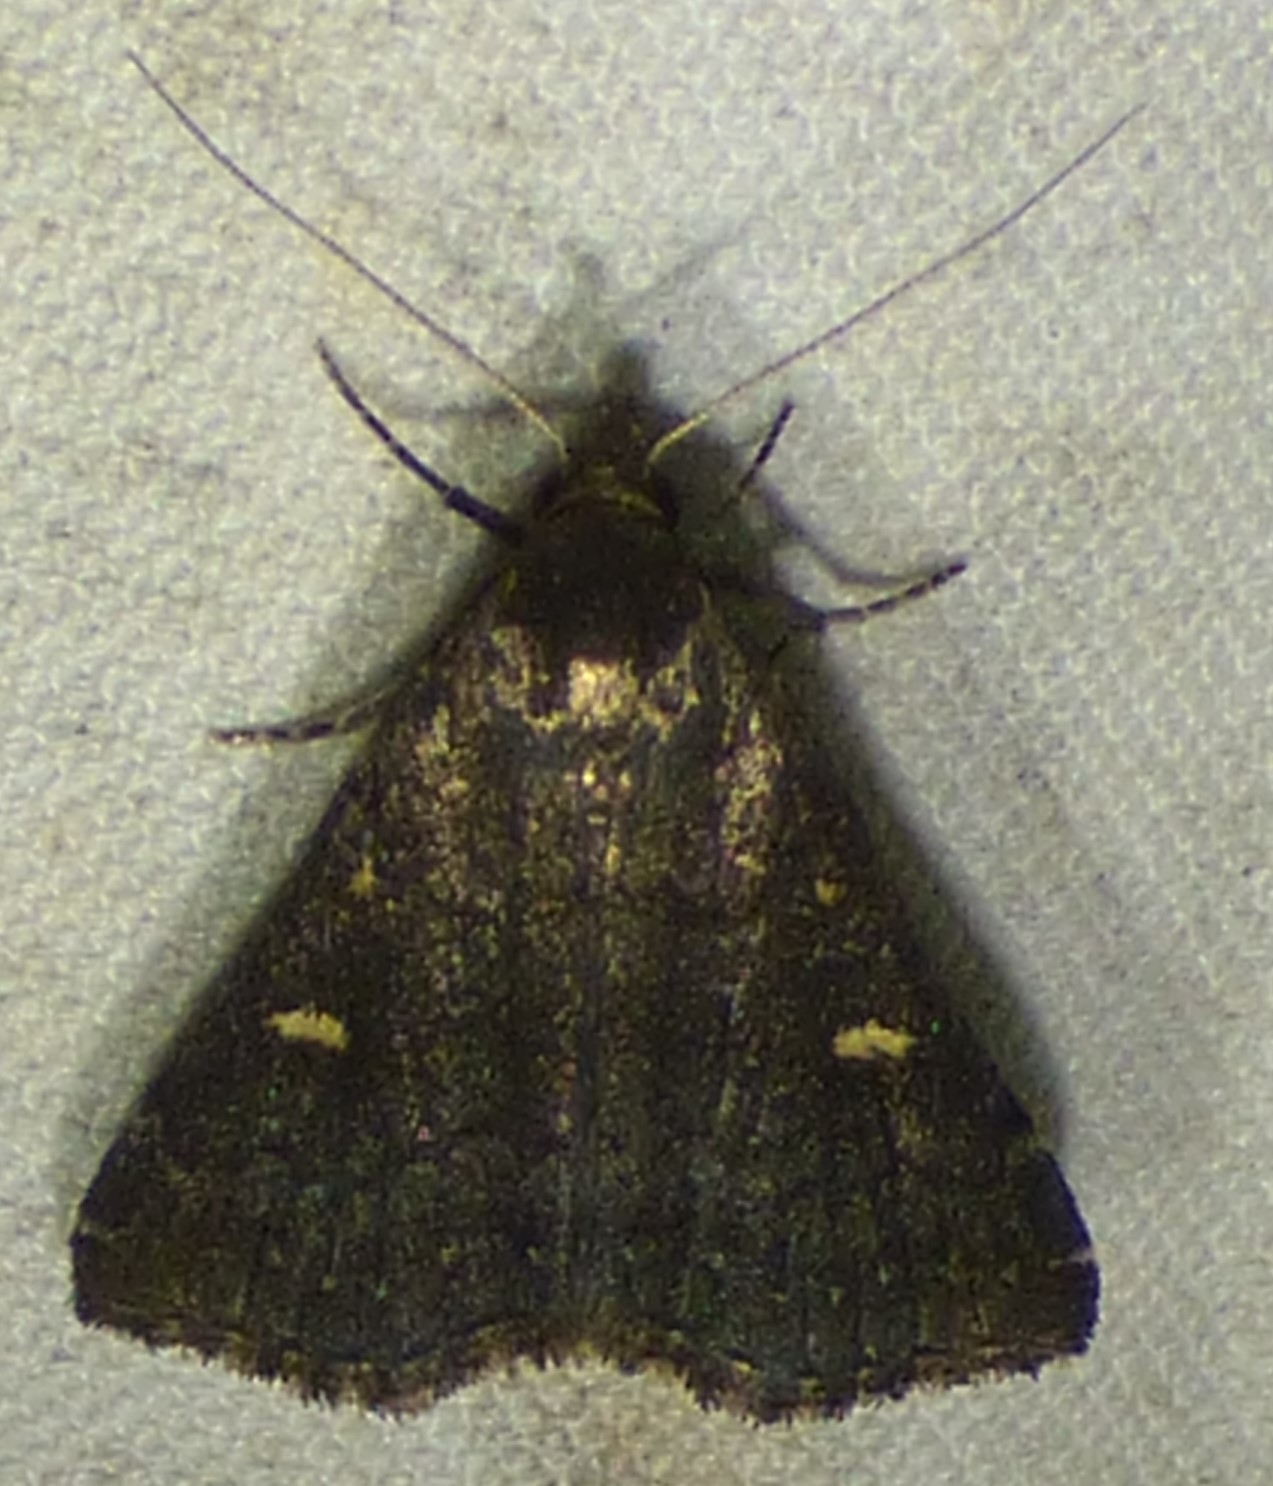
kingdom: Animalia
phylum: Arthropoda
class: Insecta
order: Lepidoptera
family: Erebidae
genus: Tetanolita
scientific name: Tetanolita mynesalis
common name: Smoky tetanolita moth
